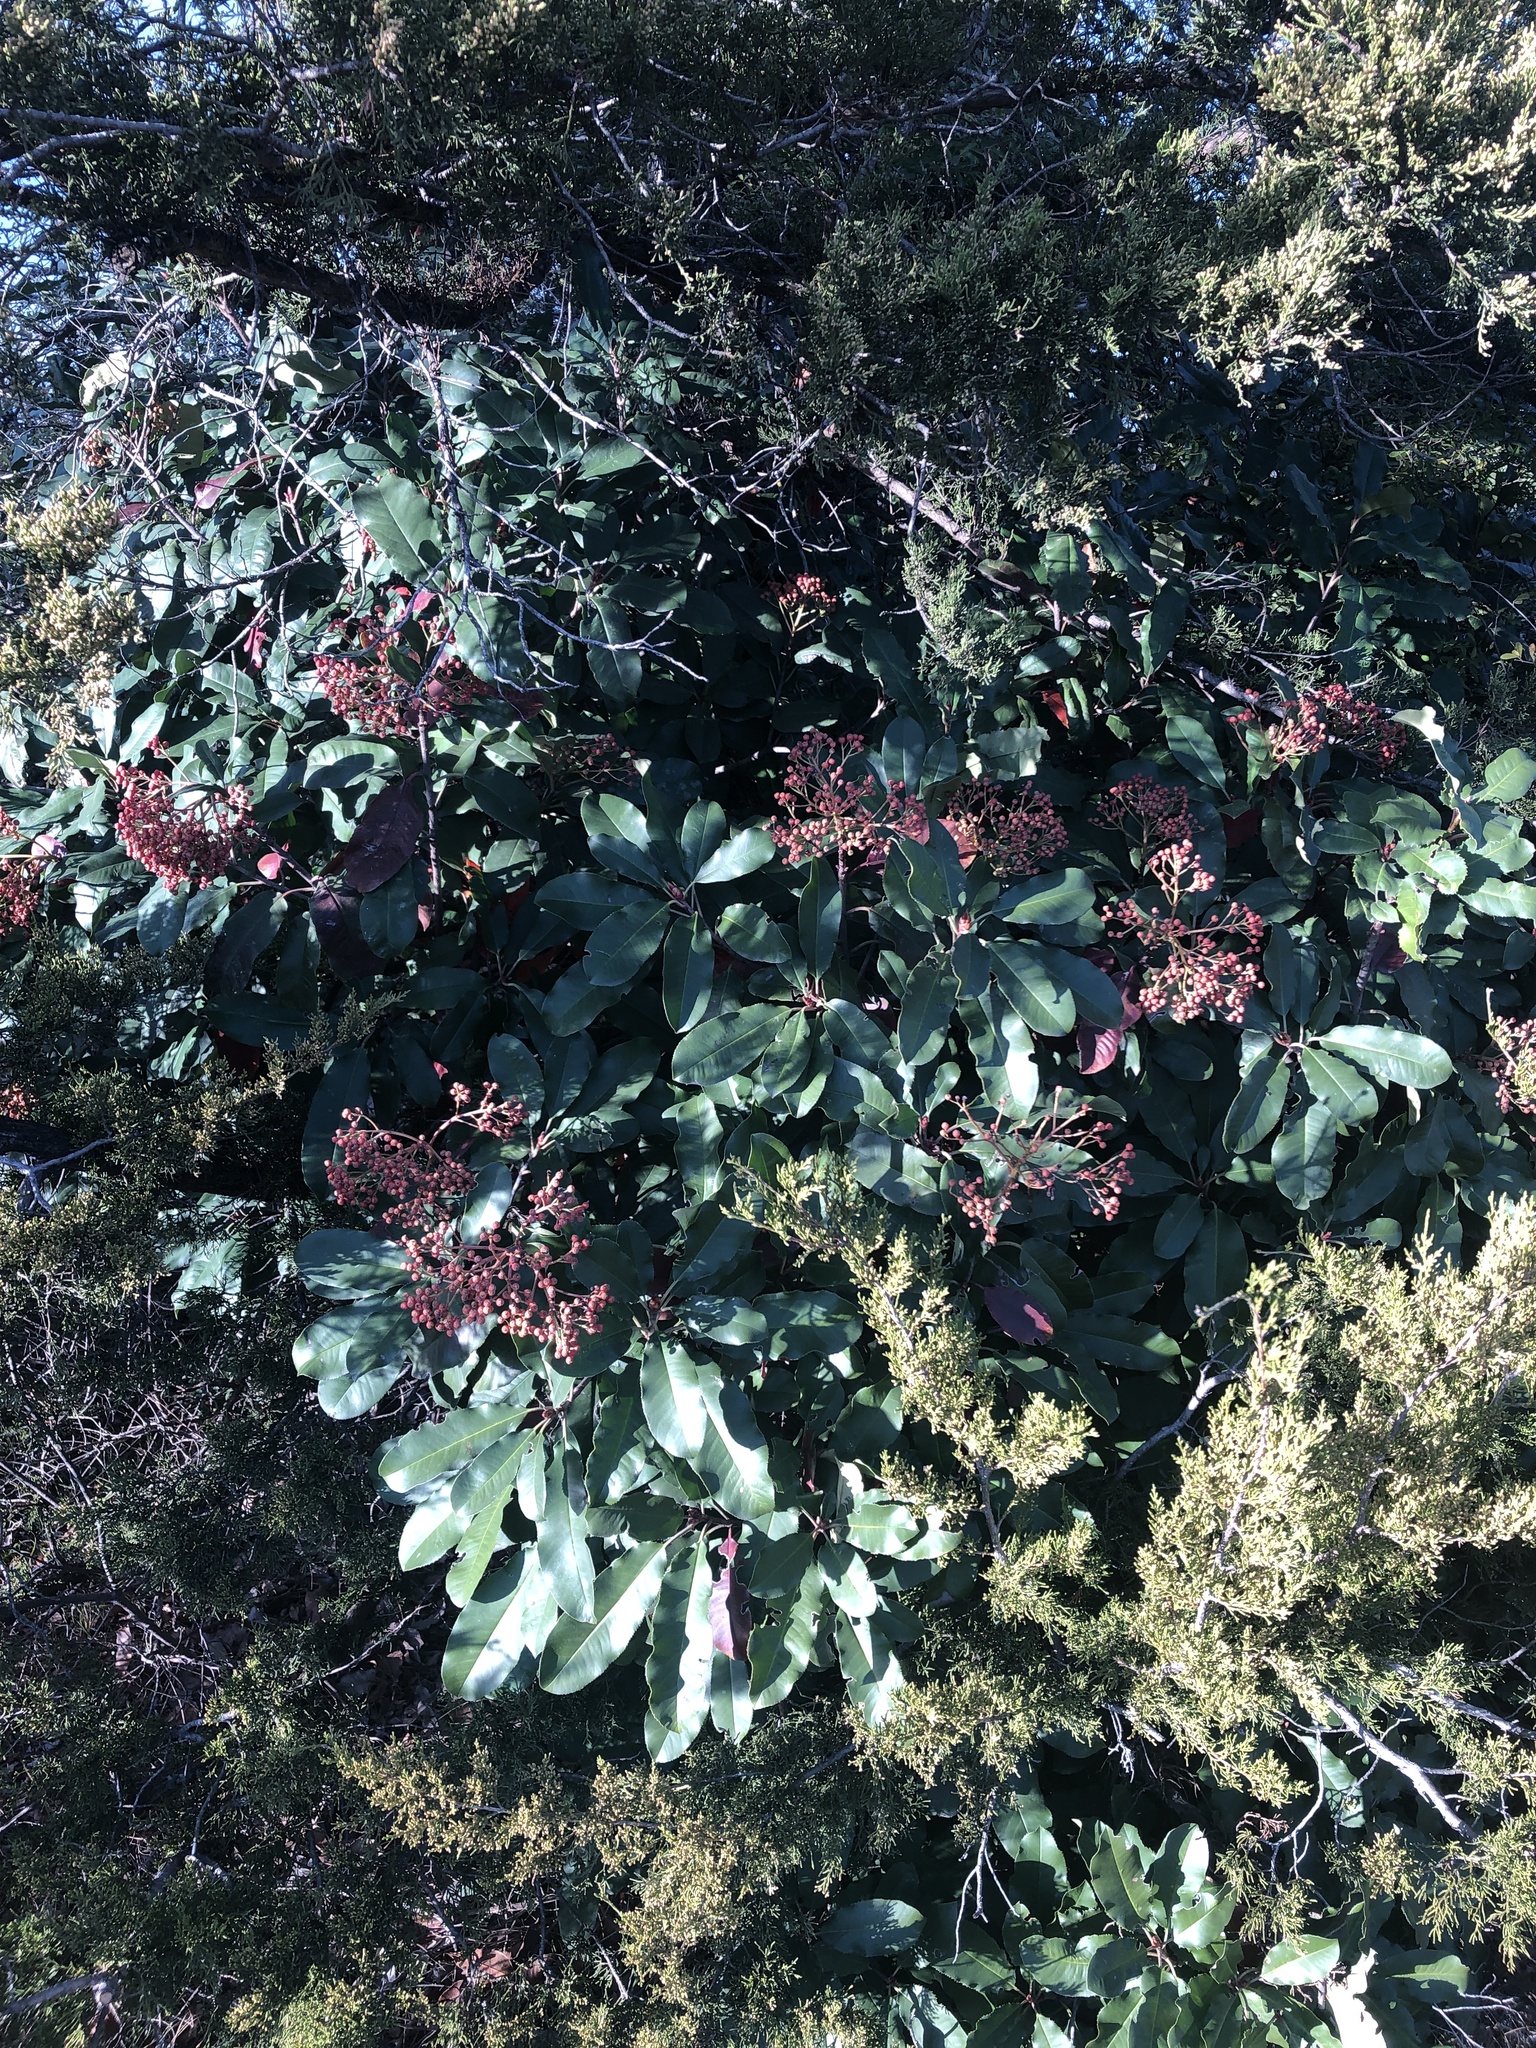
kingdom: Plantae
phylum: Tracheophyta
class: Magnoliopsida
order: Rosales
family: Rosaceae
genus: Photinia
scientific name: Photinia serratifolia
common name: Taiwanese photinia
